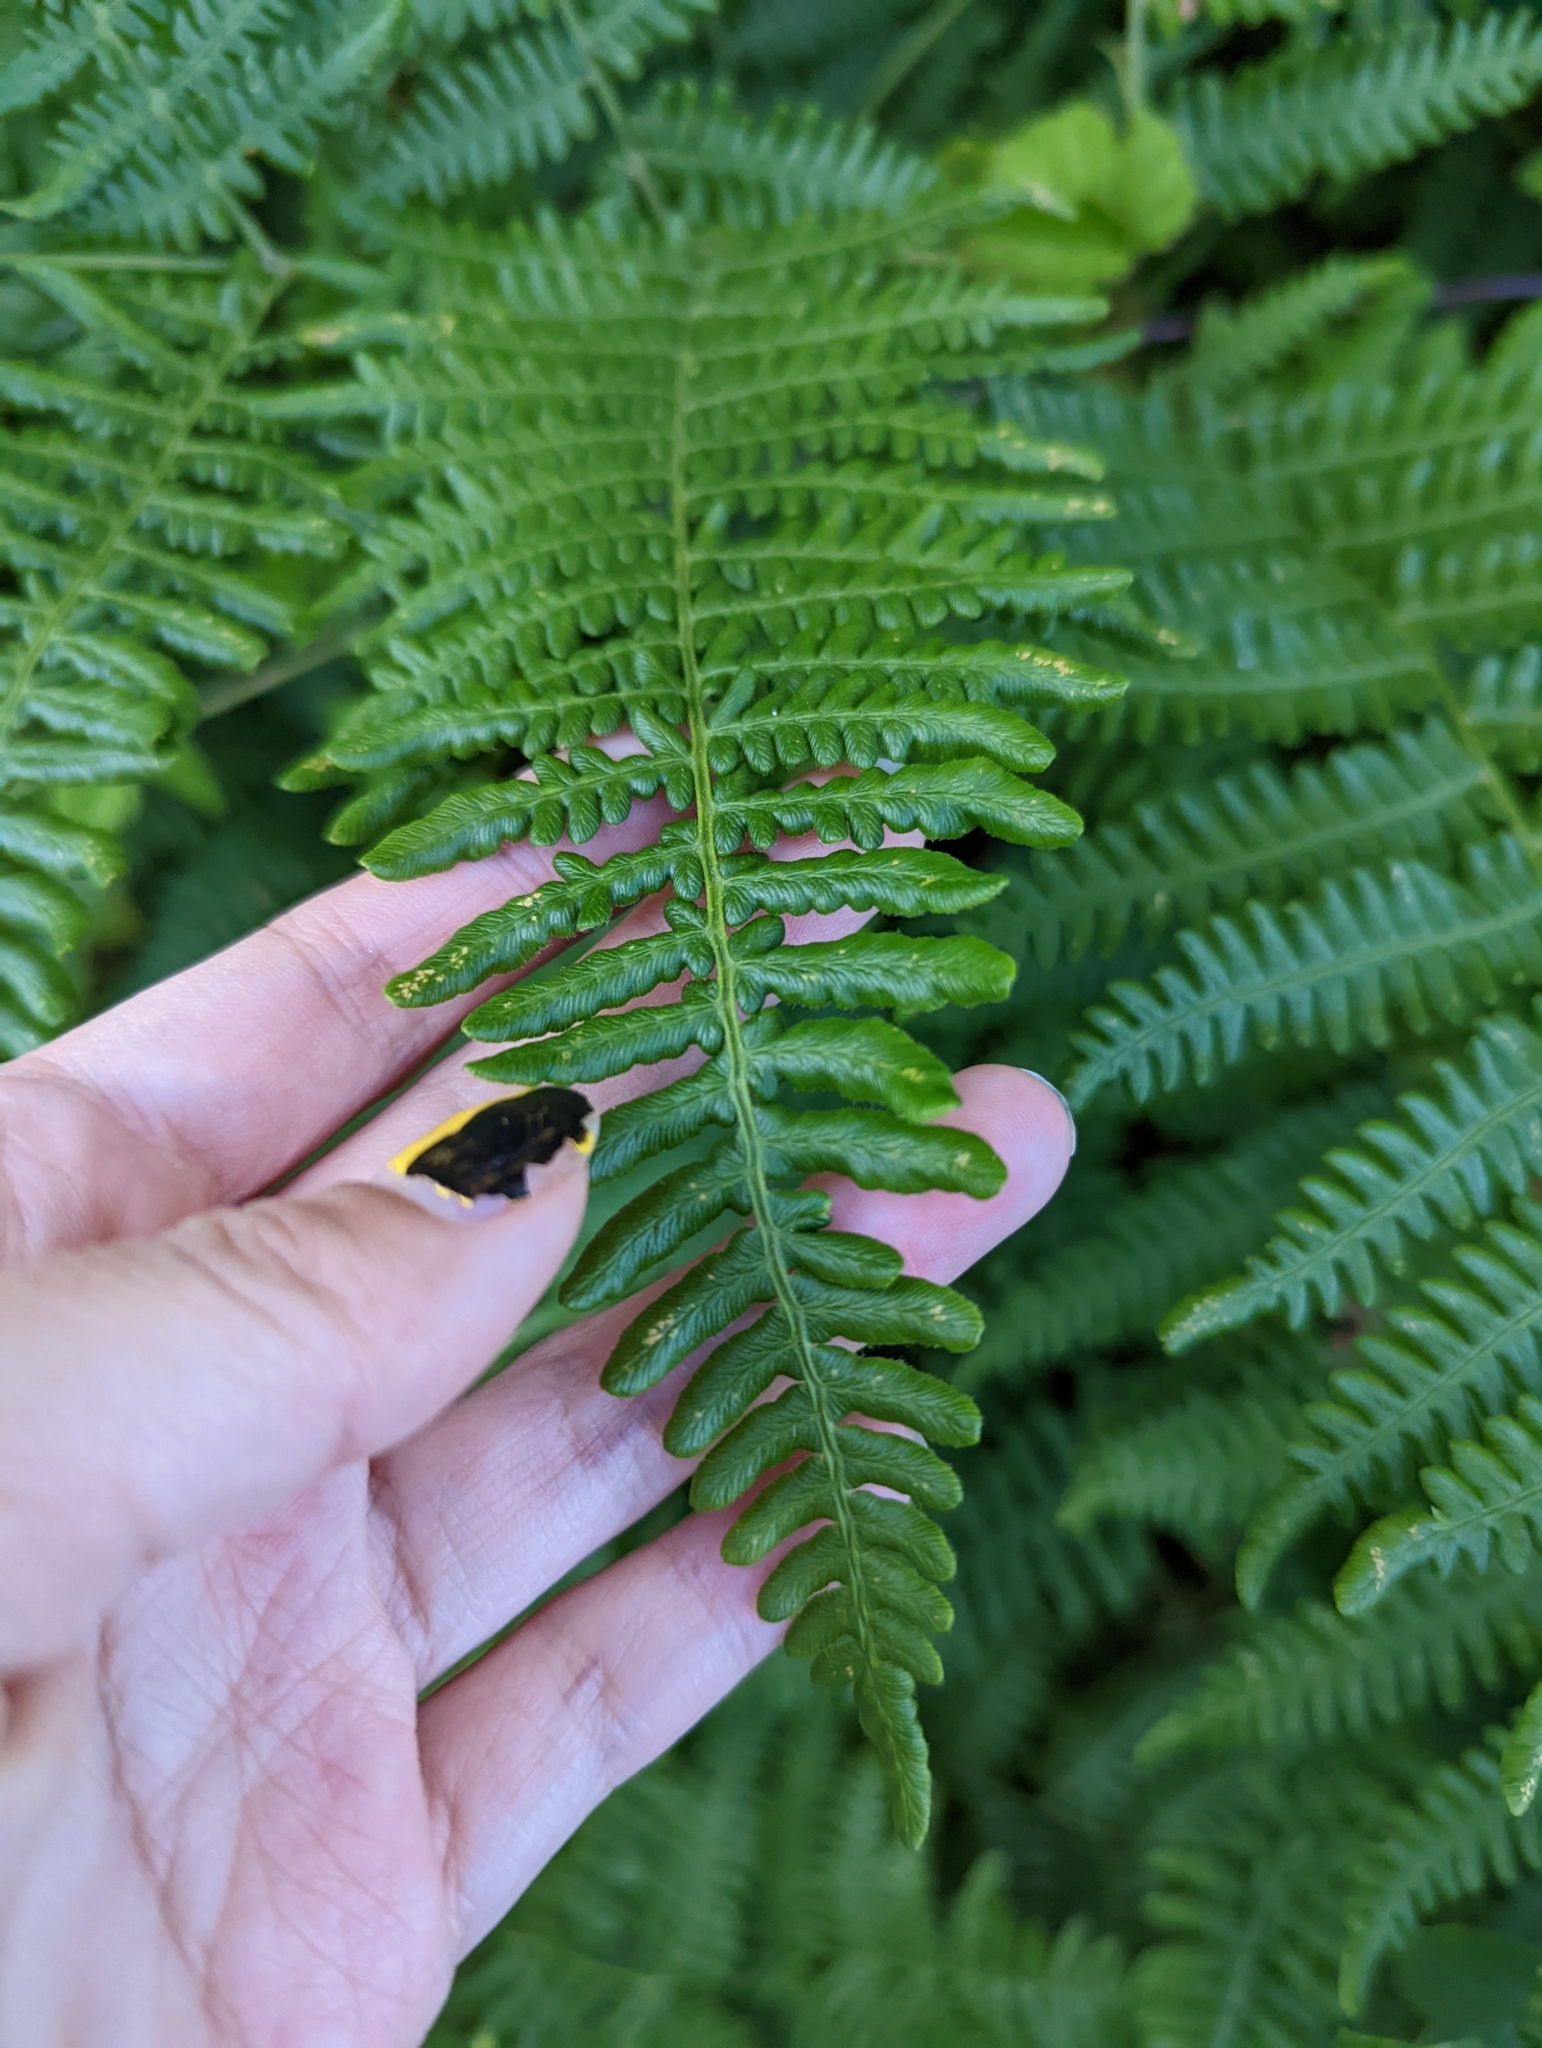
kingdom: Plantae
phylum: Tracheophyta
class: Polypodiopsida
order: Polypodiales
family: Dennstaedtiaceae
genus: Pteridium
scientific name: Pteridium aquilinum
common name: Bracken
